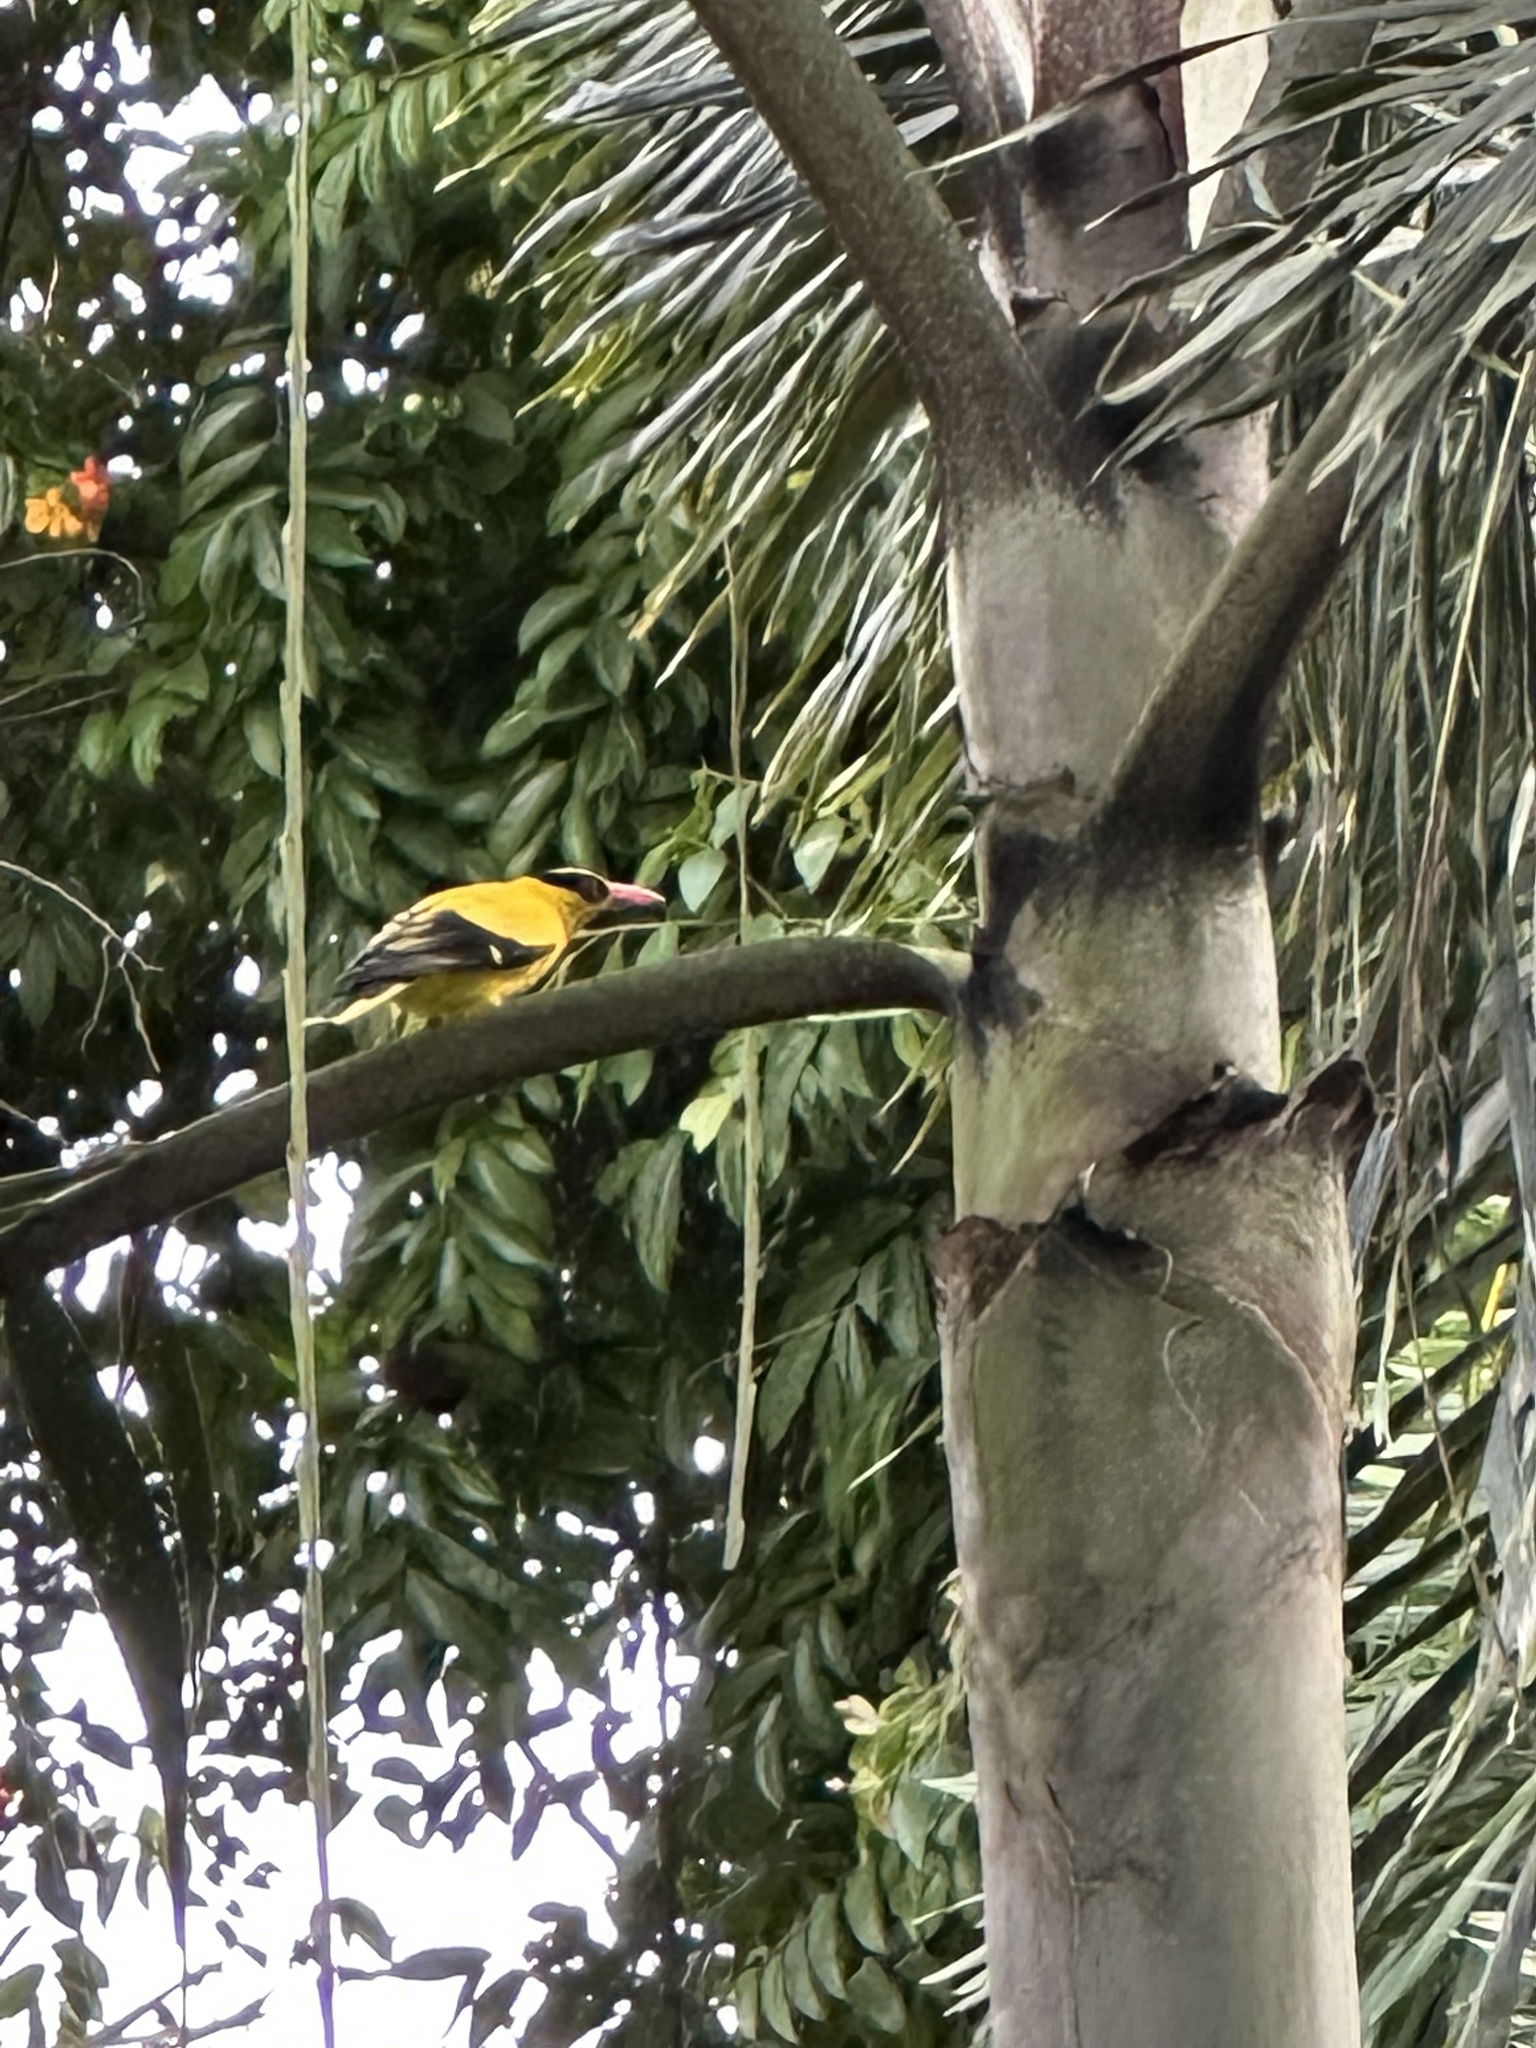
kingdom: Animalia
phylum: Chordata
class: Aves
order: Passeriformes
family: Oriolidae
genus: Oriolus
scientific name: Oriolus chinensis
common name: Black-naped oriole
